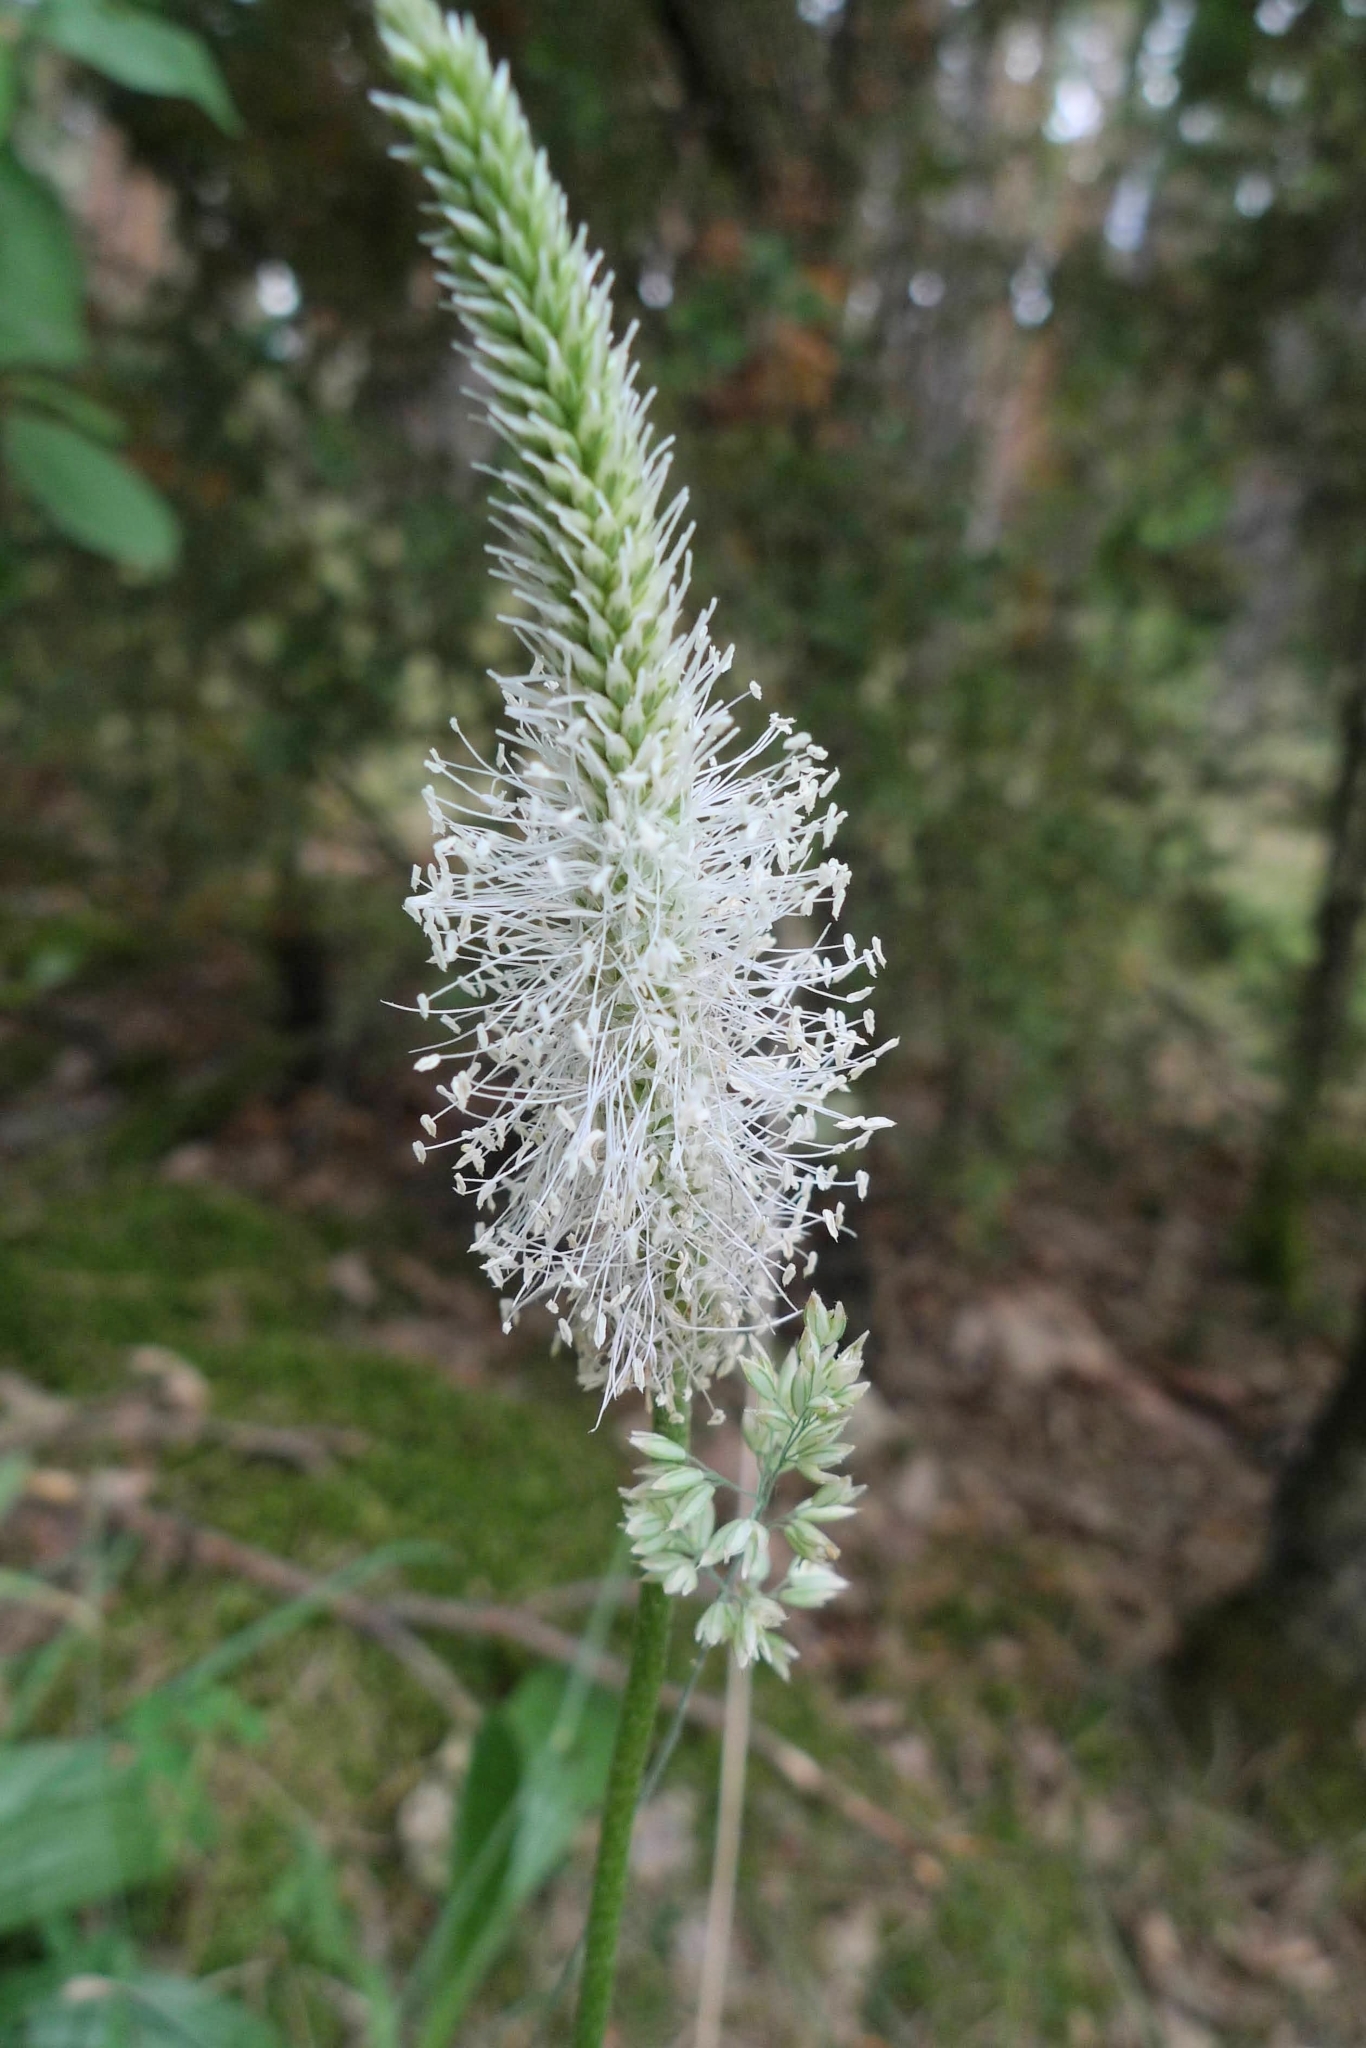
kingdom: Plantae
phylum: Tracheophyta
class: Magnoliopsida
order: Lamiales
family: Plantaginaceae
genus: Plantago
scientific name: Plantago media
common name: Hoary plantain
